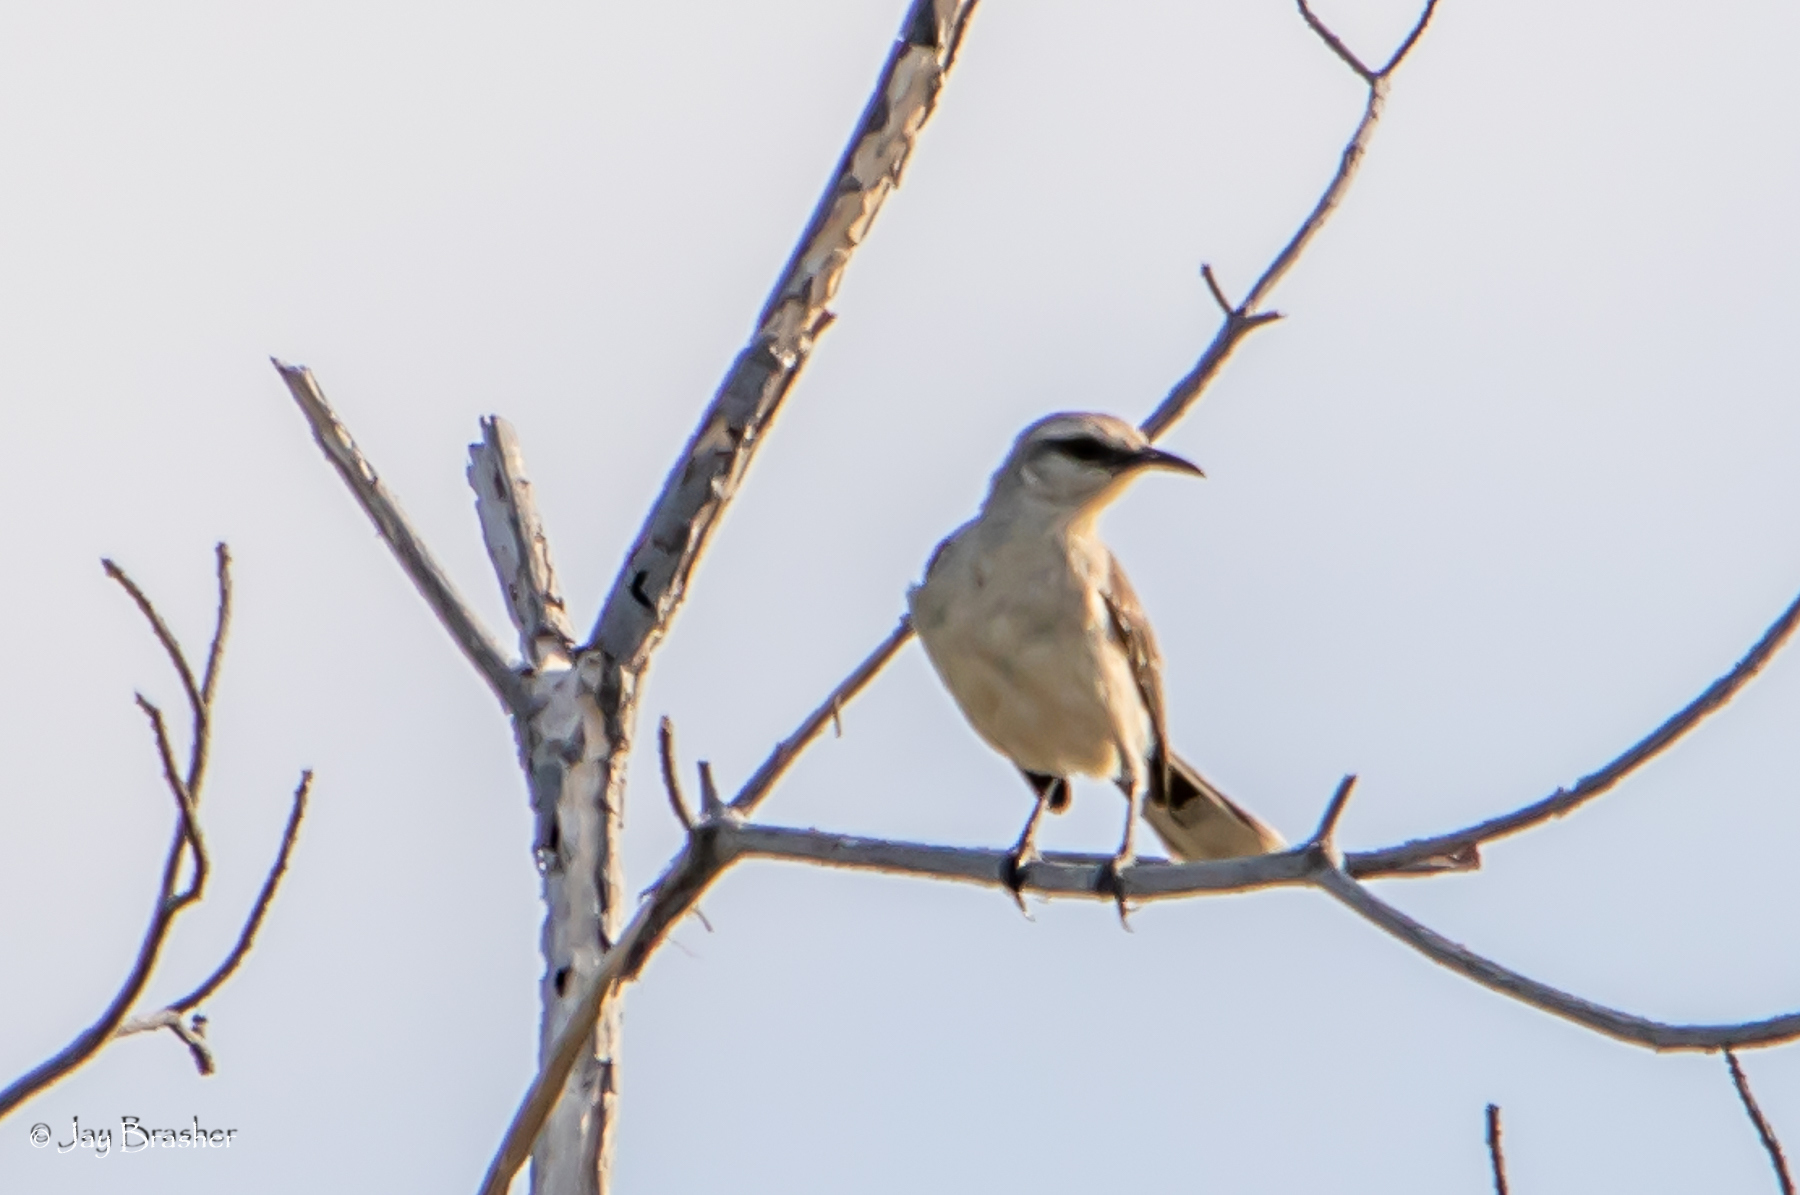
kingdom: Animalia
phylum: Chordata
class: Aves
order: Passeriformes
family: Mimidae
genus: Mimus
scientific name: Mimus gilvus
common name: Tropical mockingbird
